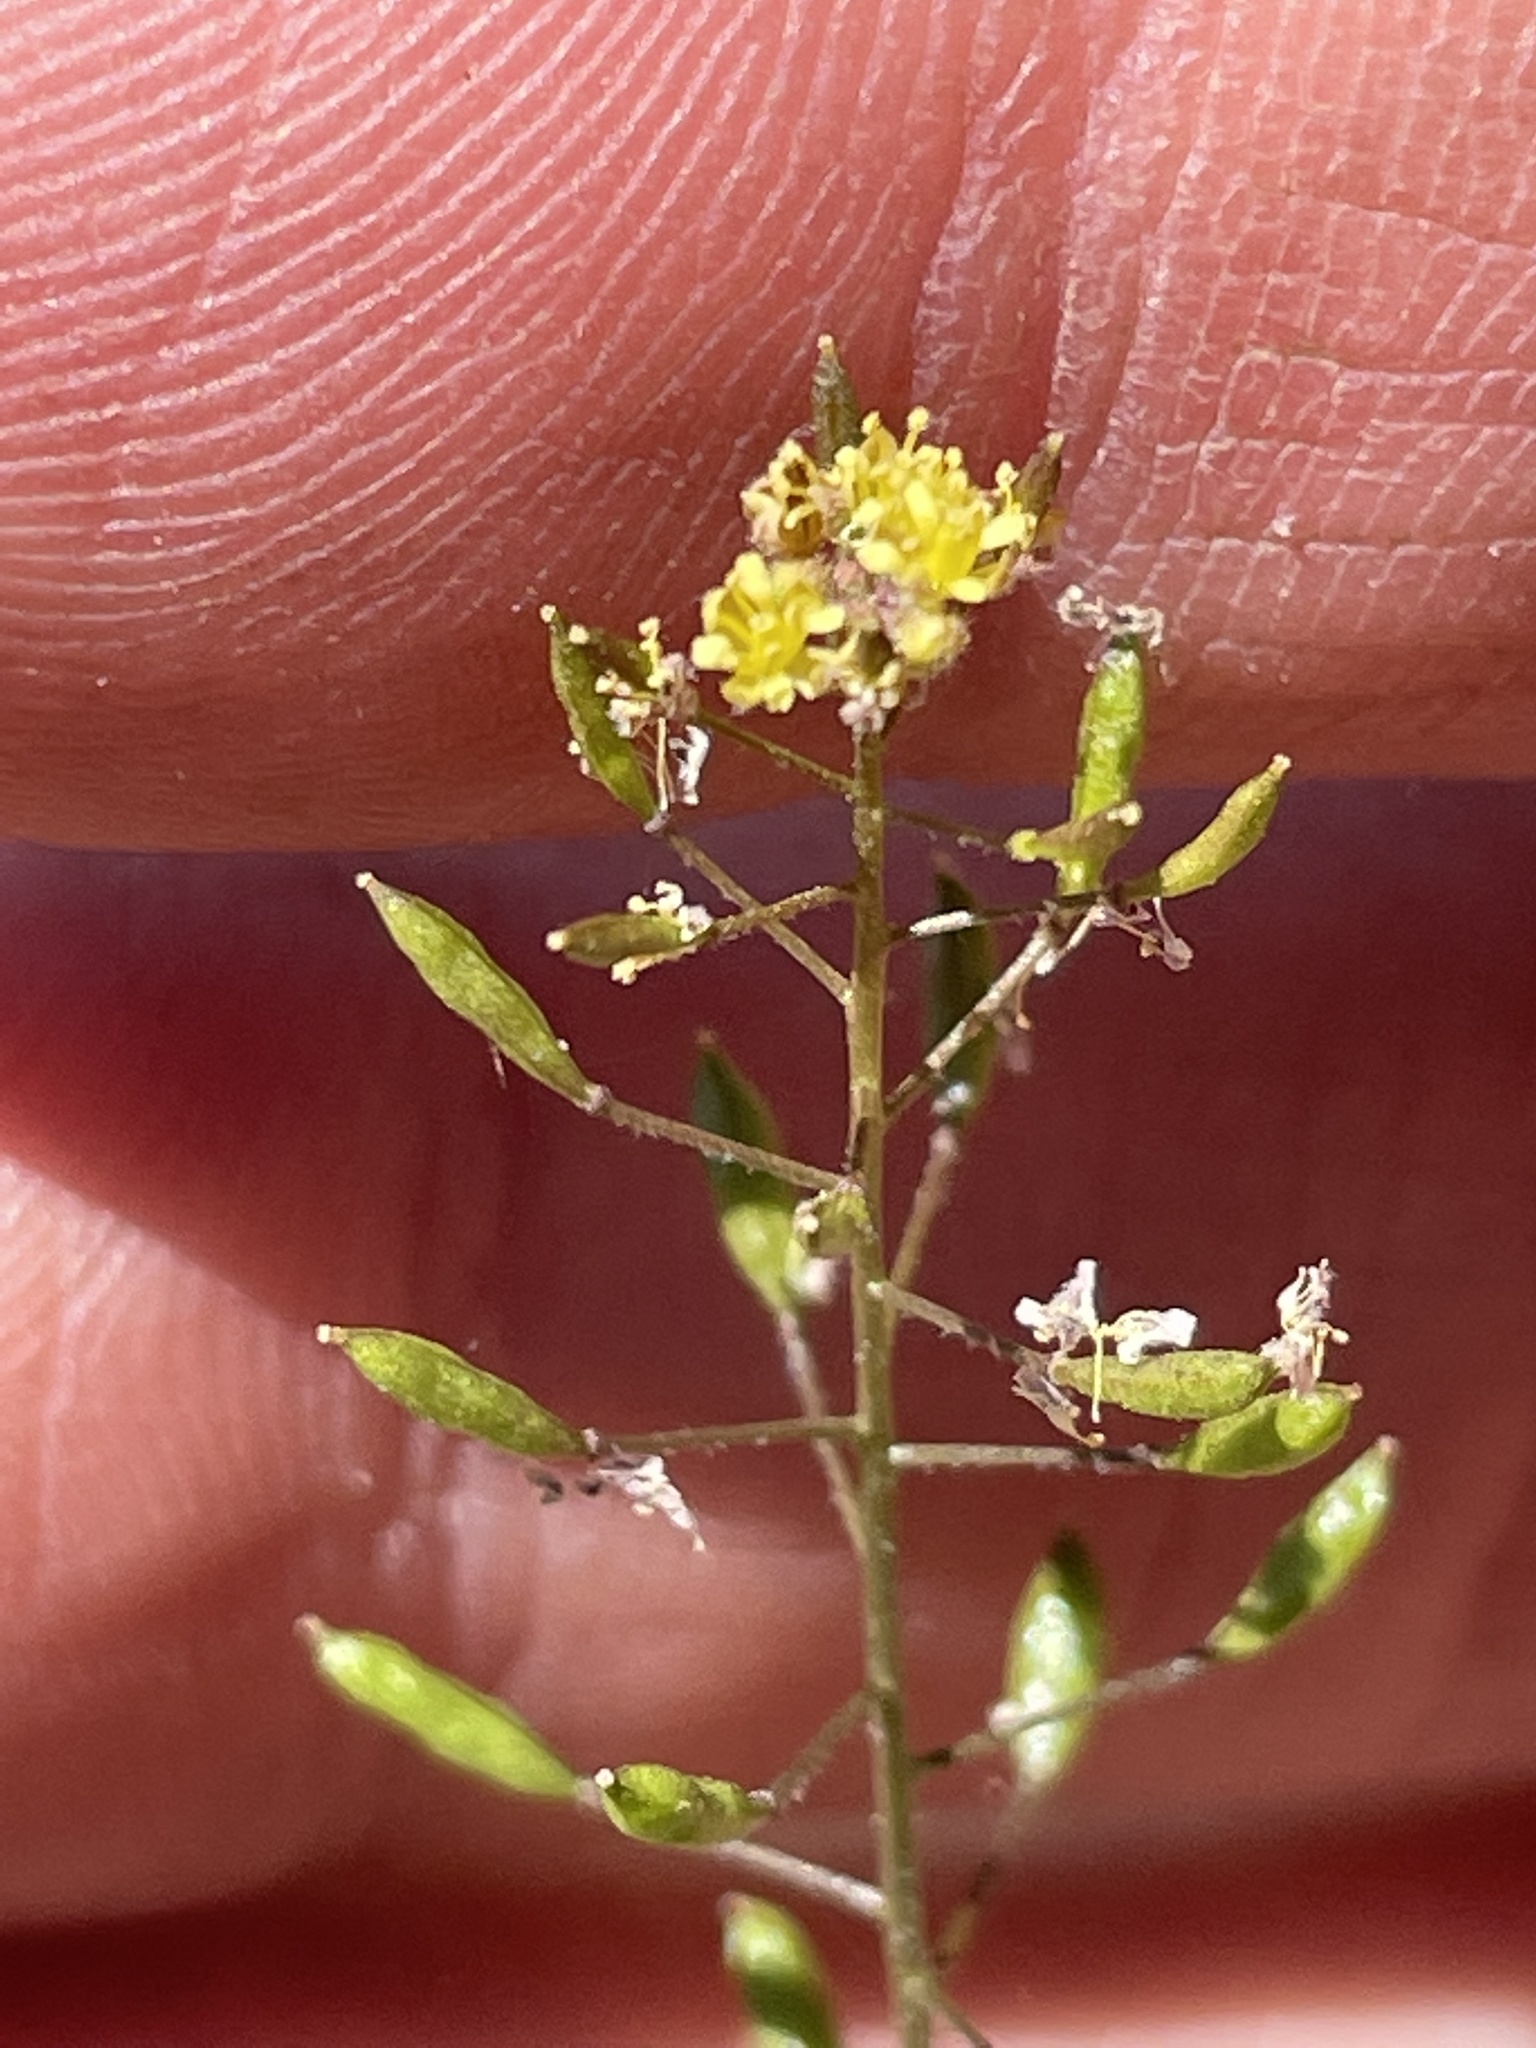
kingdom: Plantae
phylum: Tracheophyta
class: Magnoliopsida
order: Brassicales
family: Brassicaceae
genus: Descurainia
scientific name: Descurainia pinnata
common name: Western tansy mustard
